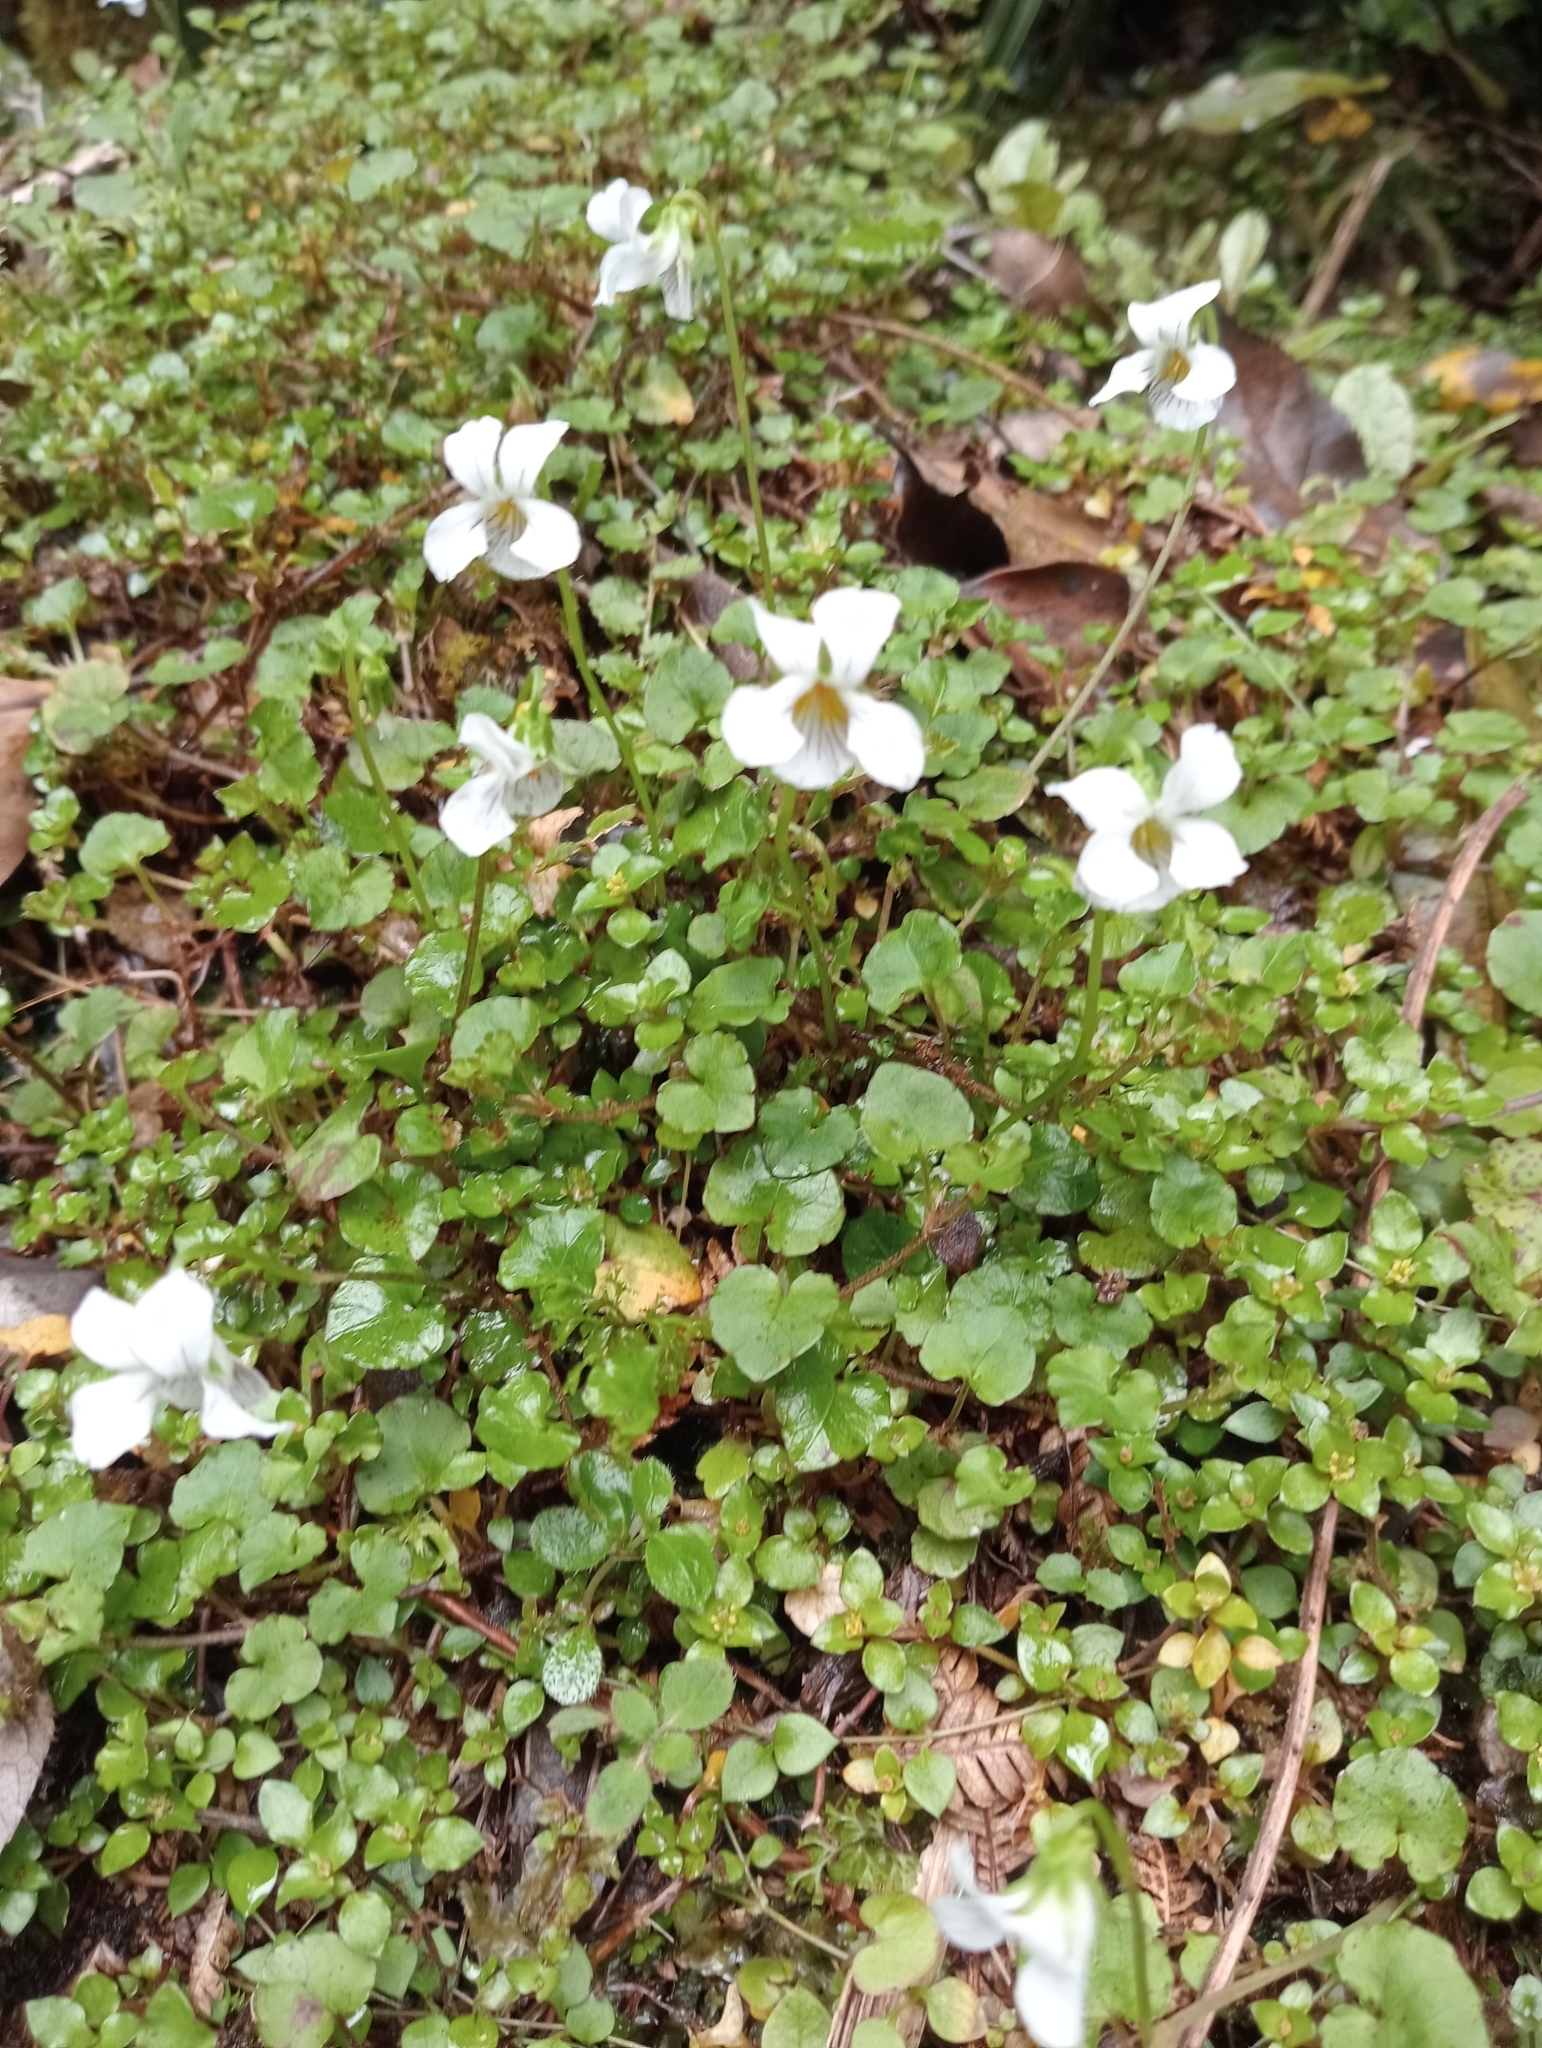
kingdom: Plantae
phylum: Tracheophyta
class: Magnoliopsida
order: Malpighiales
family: Violaceae
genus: Viola
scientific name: Viola filicaulis
